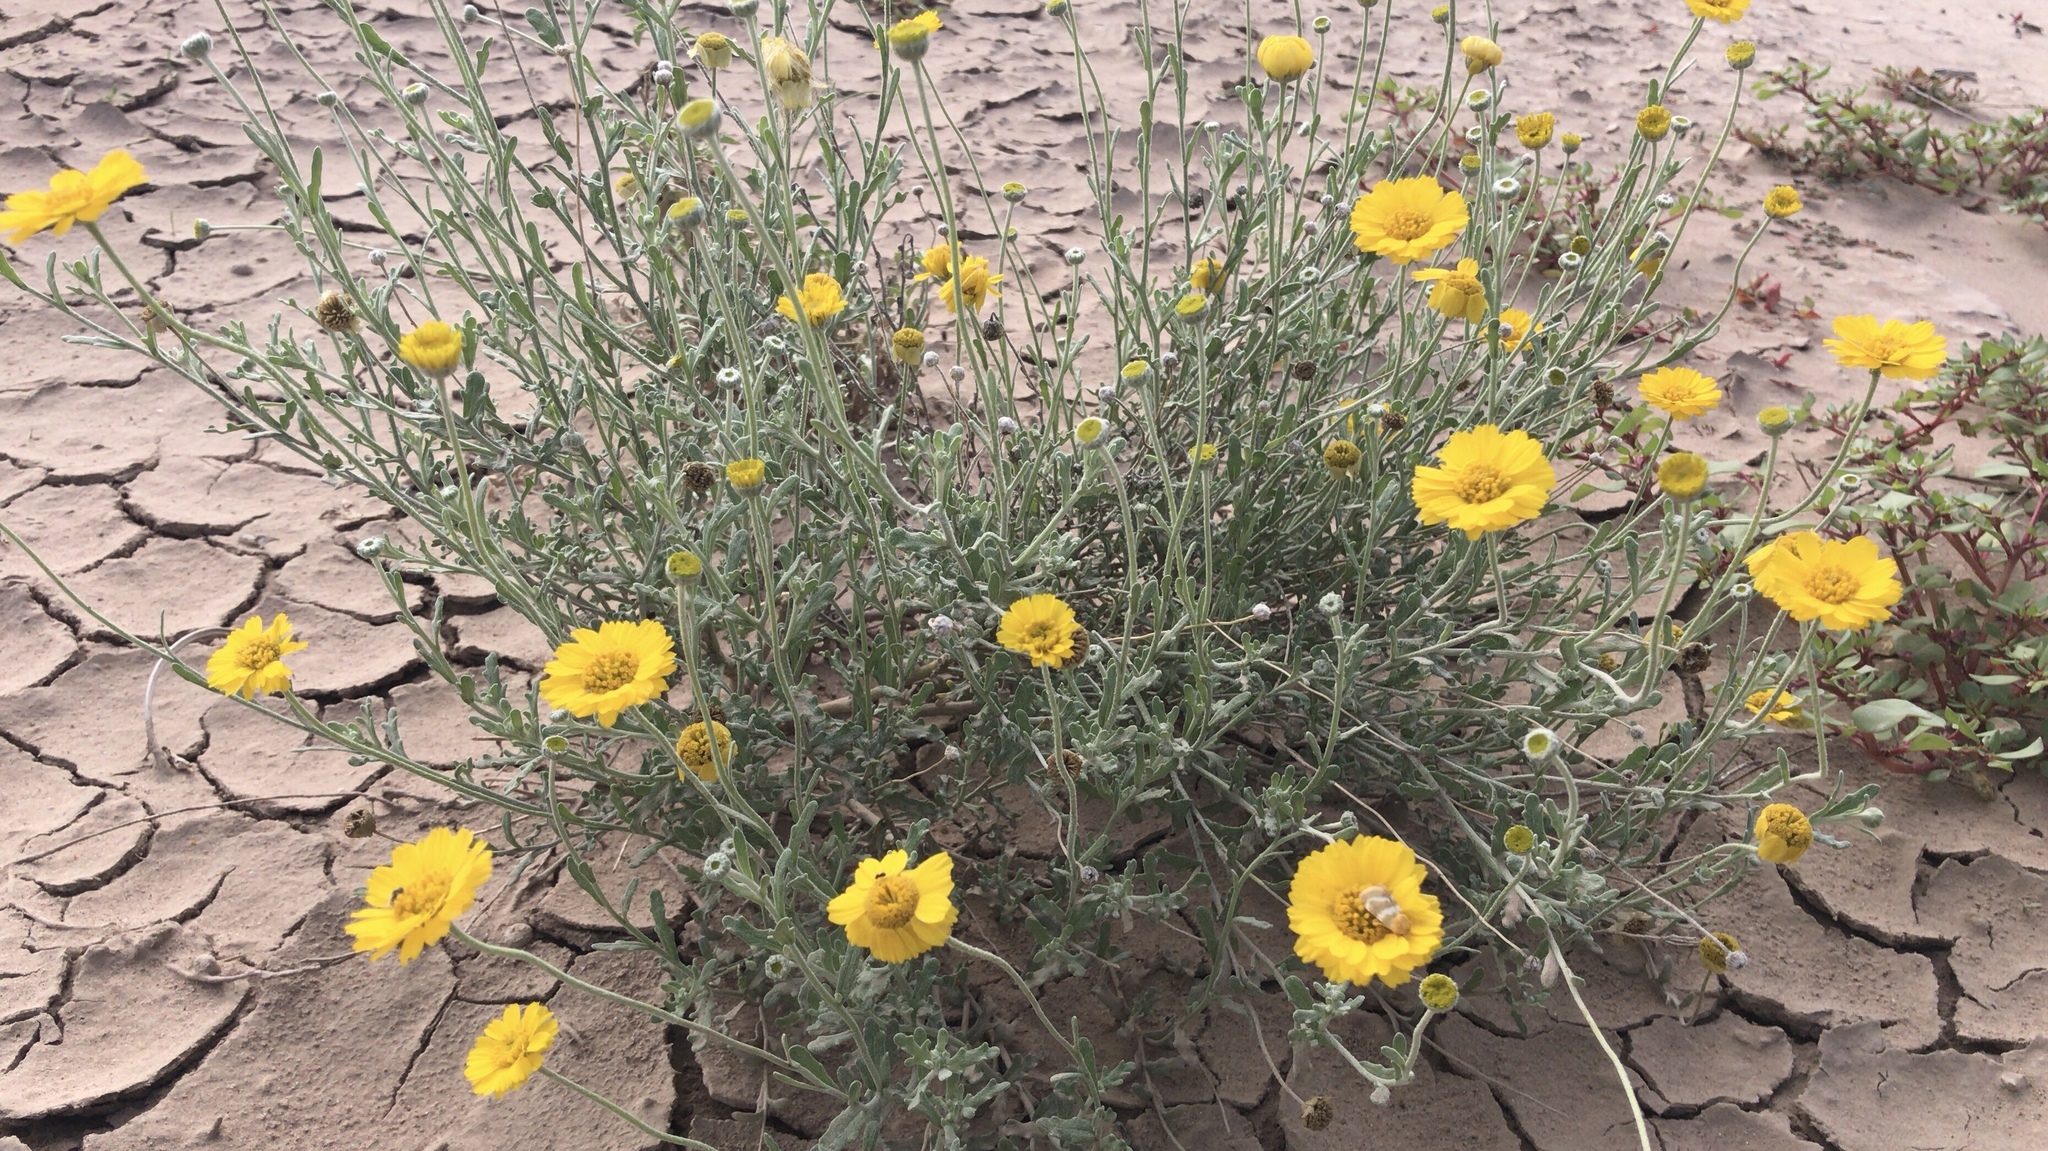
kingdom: Plantae
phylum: Tracheophyta
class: Magnoliopsida
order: Asterales
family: Asteraceae
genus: Baileya
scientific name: Baileya multiradiata
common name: Desert-marigold
